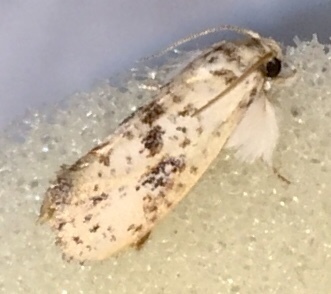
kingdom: Animalia
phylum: Arthropoda
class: Insecta
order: Lepidoptera
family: Tineidae
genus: Acrolophus
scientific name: Acrolophus mycetophagus
